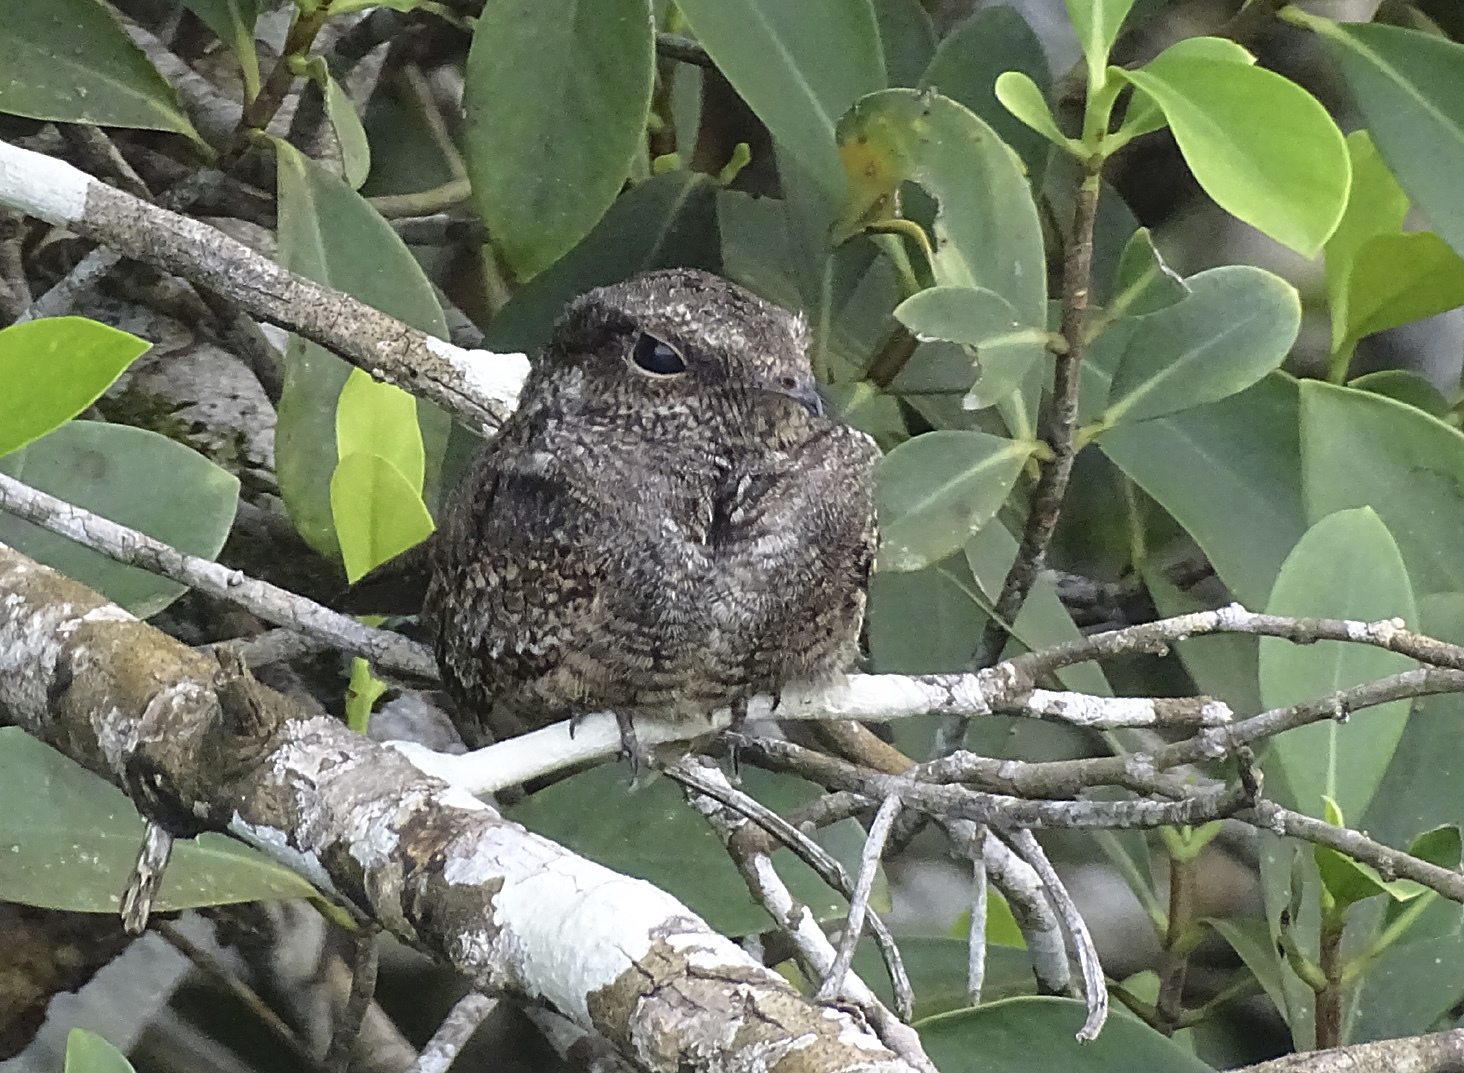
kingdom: Animalia
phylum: Chordata
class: Aves
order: Caprimulgiformes
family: Caprimulgidae
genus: Nyctidromus
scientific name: Nyctidromus albicollis
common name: Pauraque
